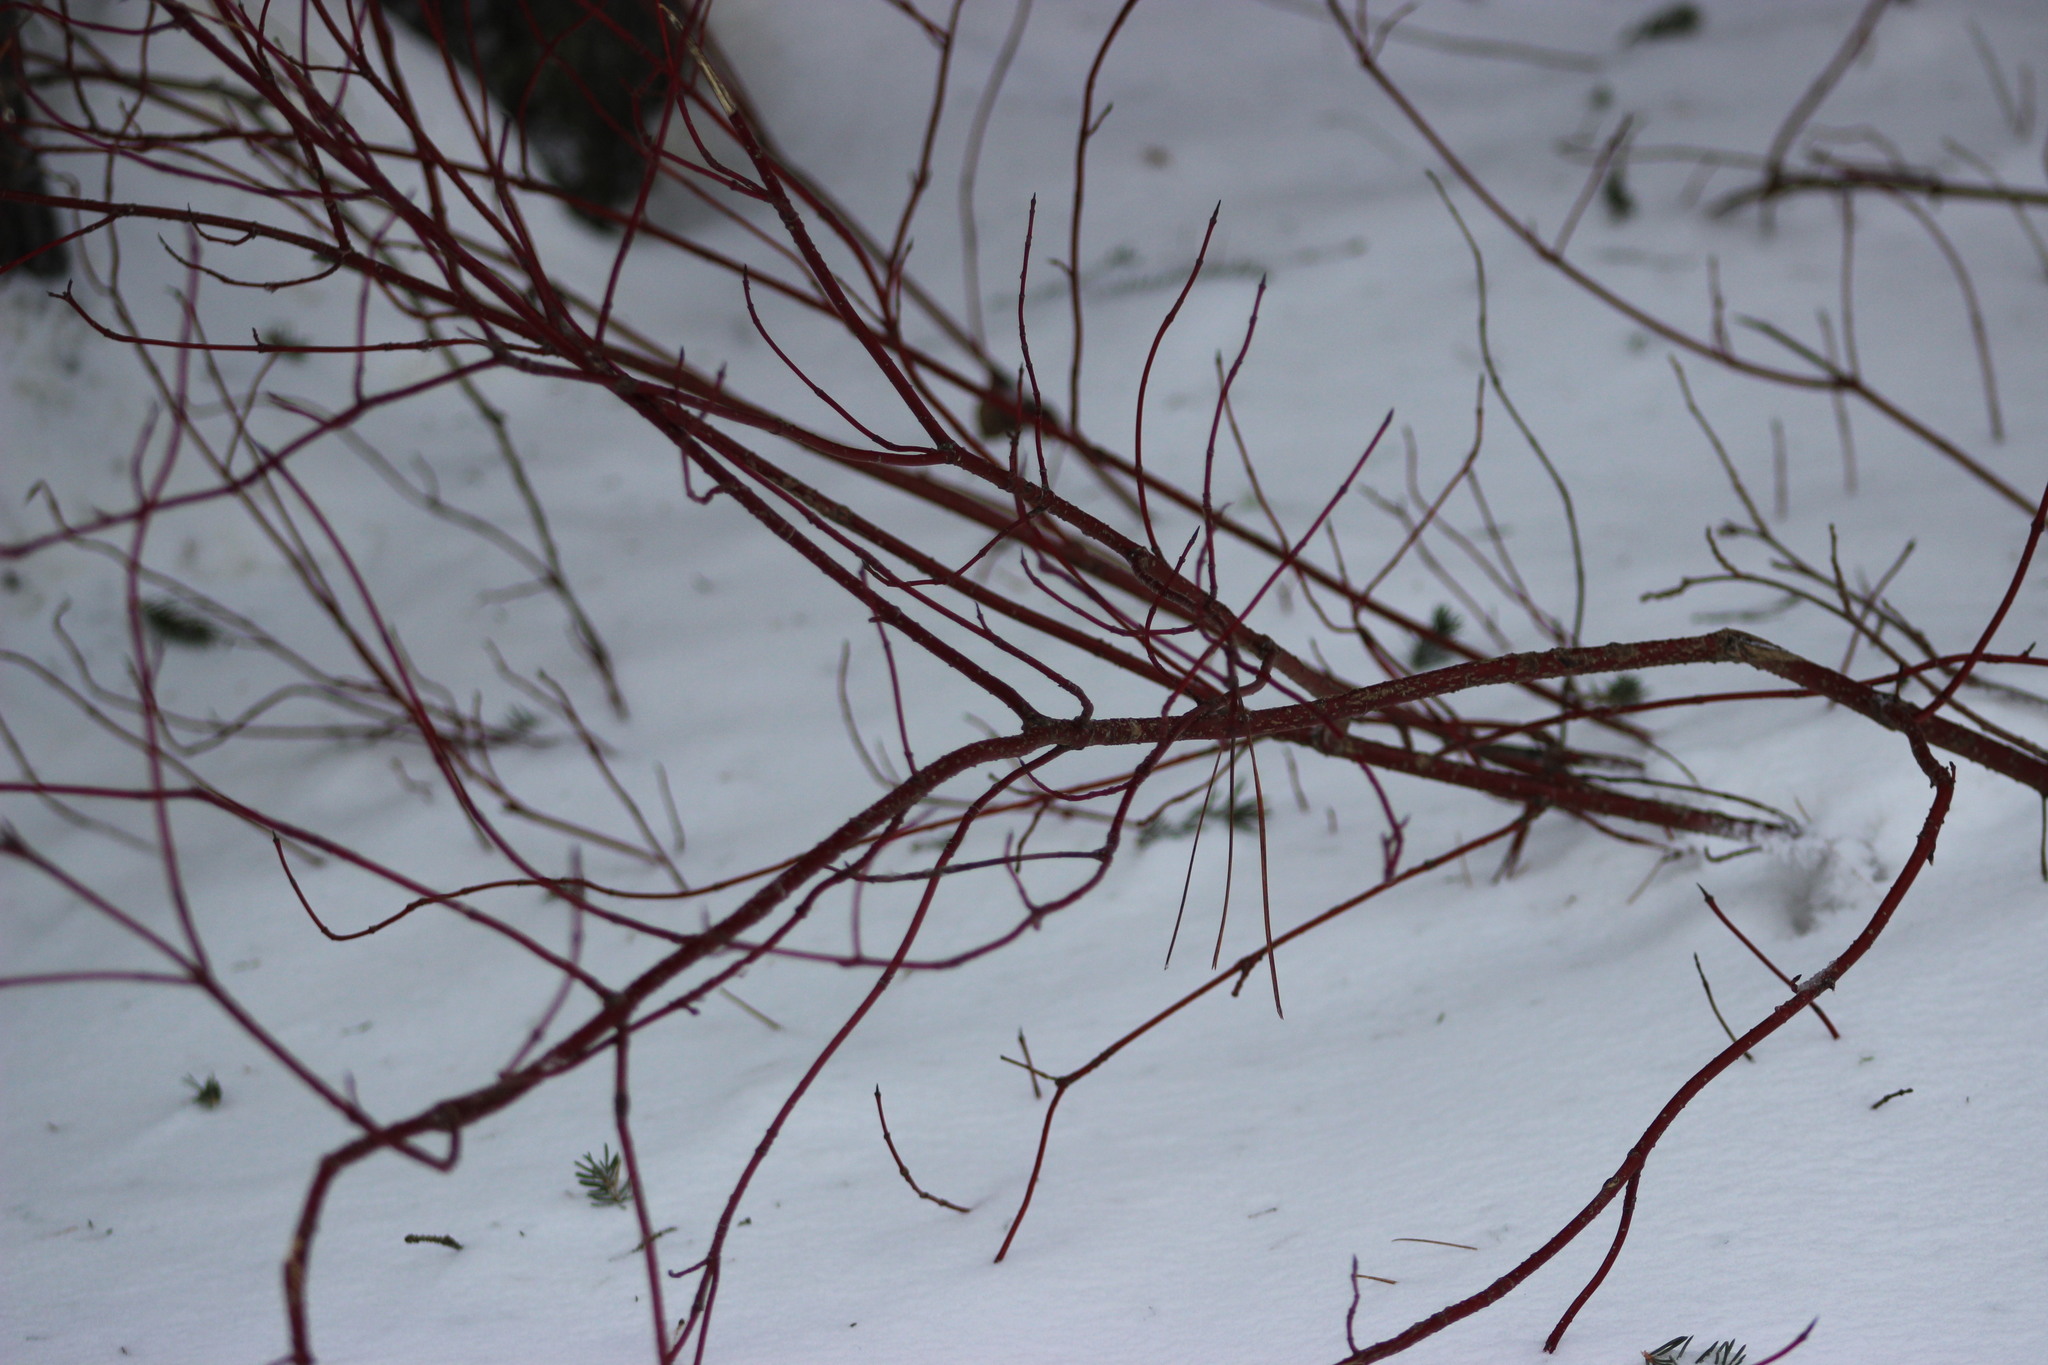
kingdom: Plantae
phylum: Tracheophyta
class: Magnoliopsida
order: Cornales
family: Cornaceae
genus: Cornus
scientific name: Cornus alba
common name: White dogwood
